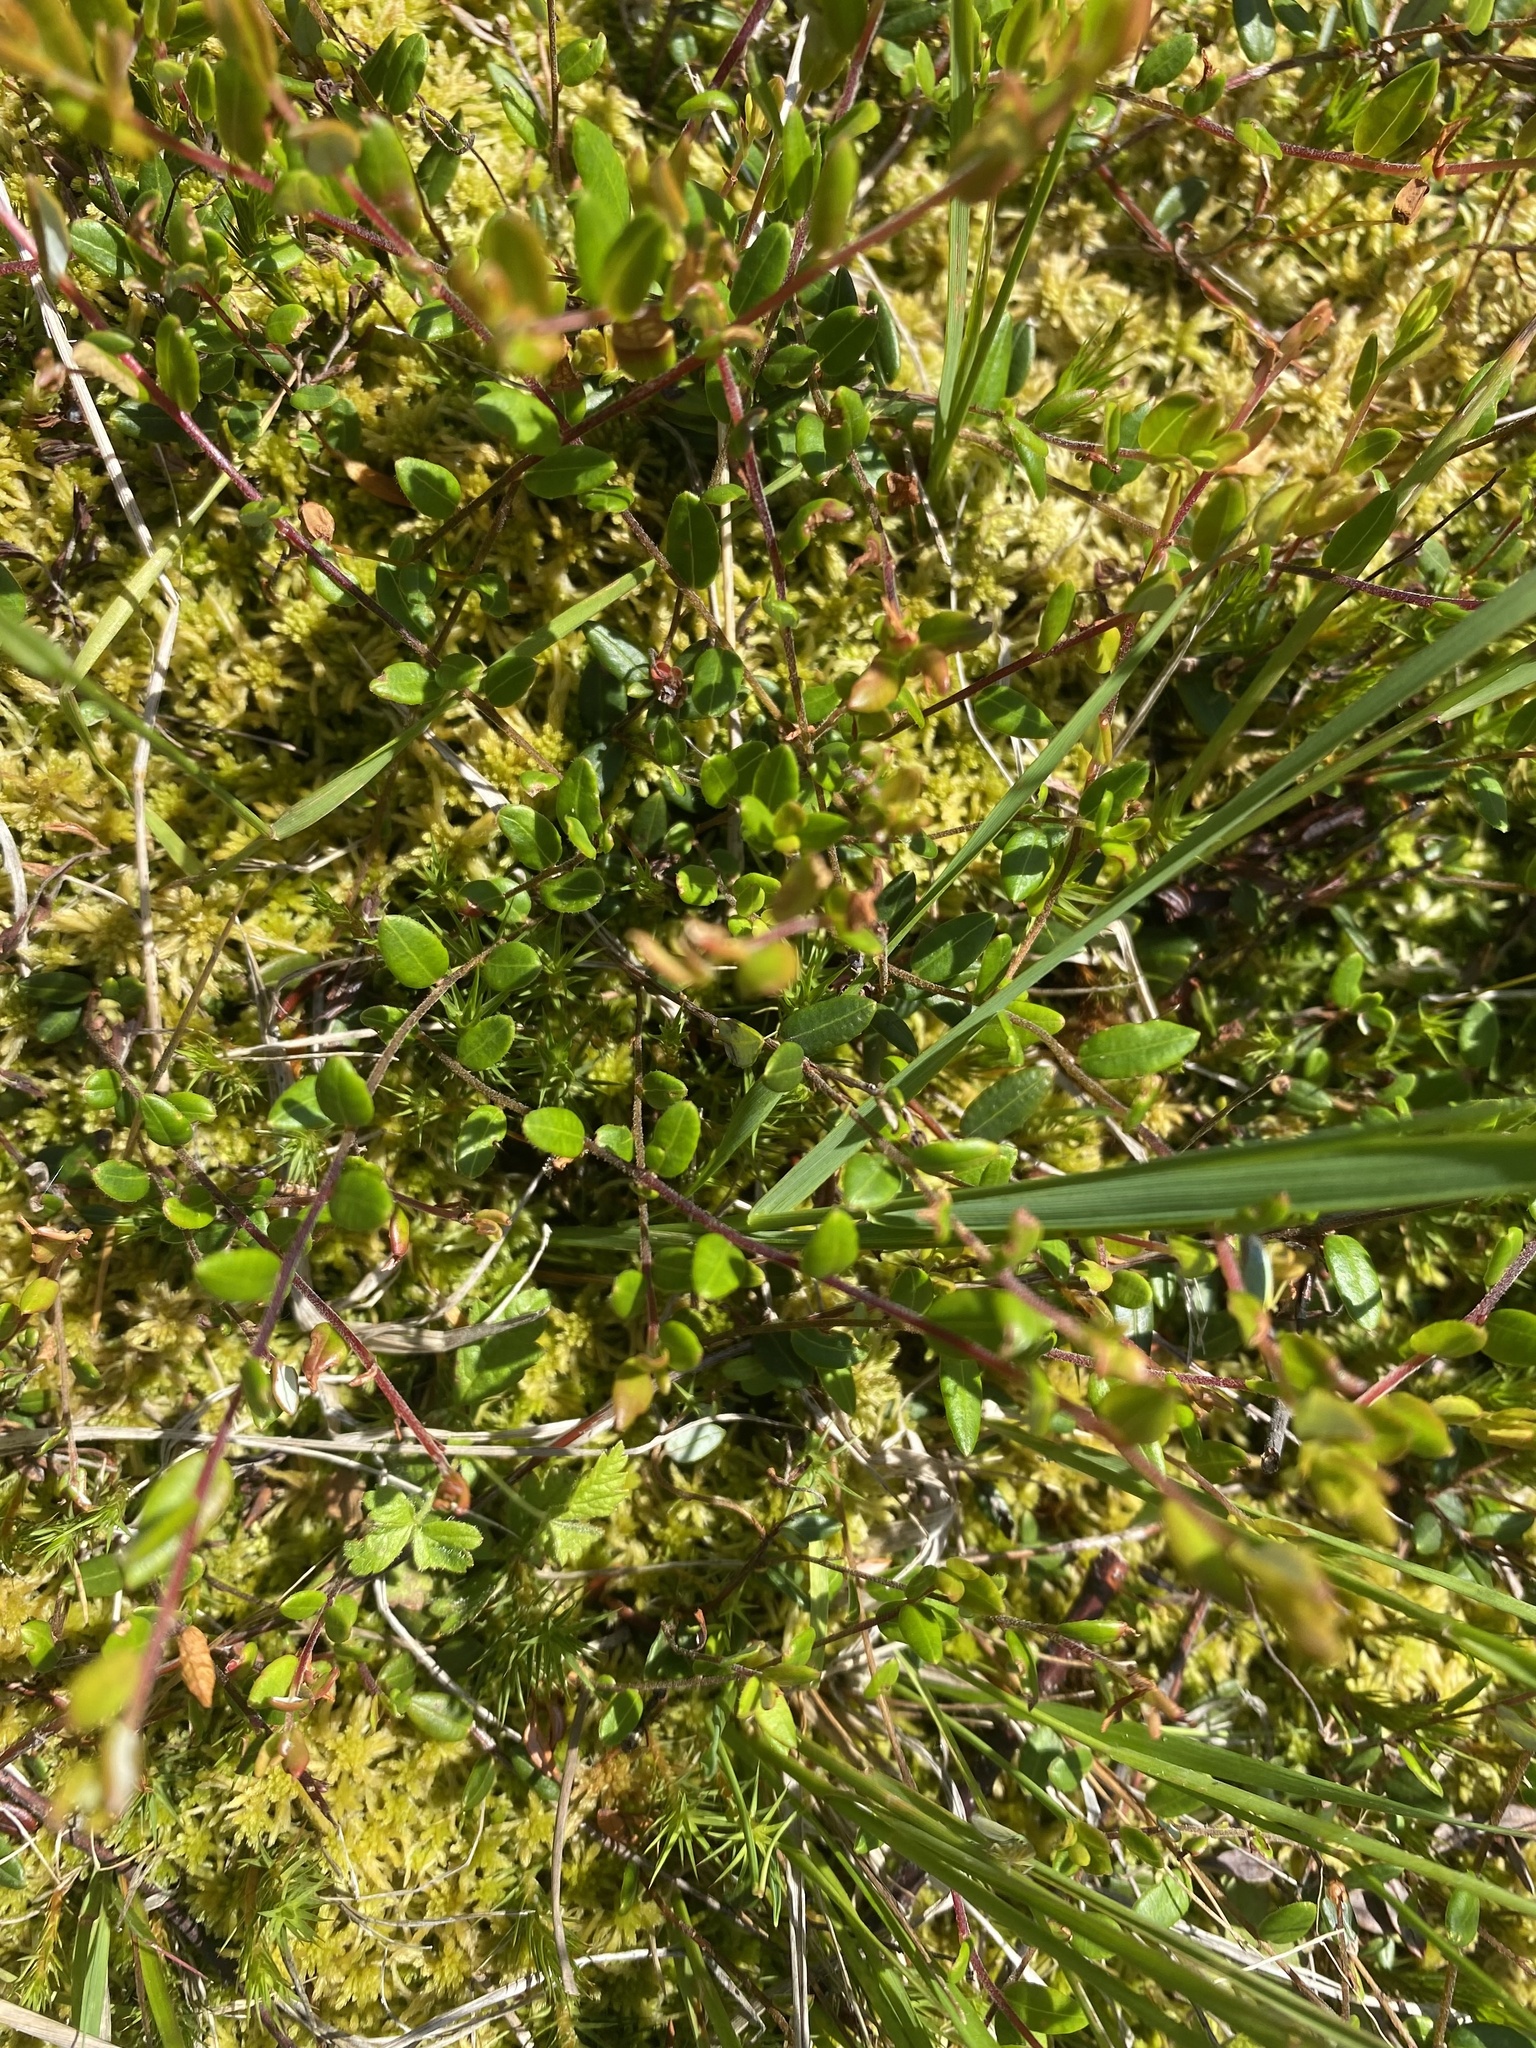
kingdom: Plantae
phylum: Tracheophyta
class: Magnoliopsida
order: Ericales
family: Ericaceae
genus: Vaccinium
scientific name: Vaccinium oxycoccos
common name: Cranberry
